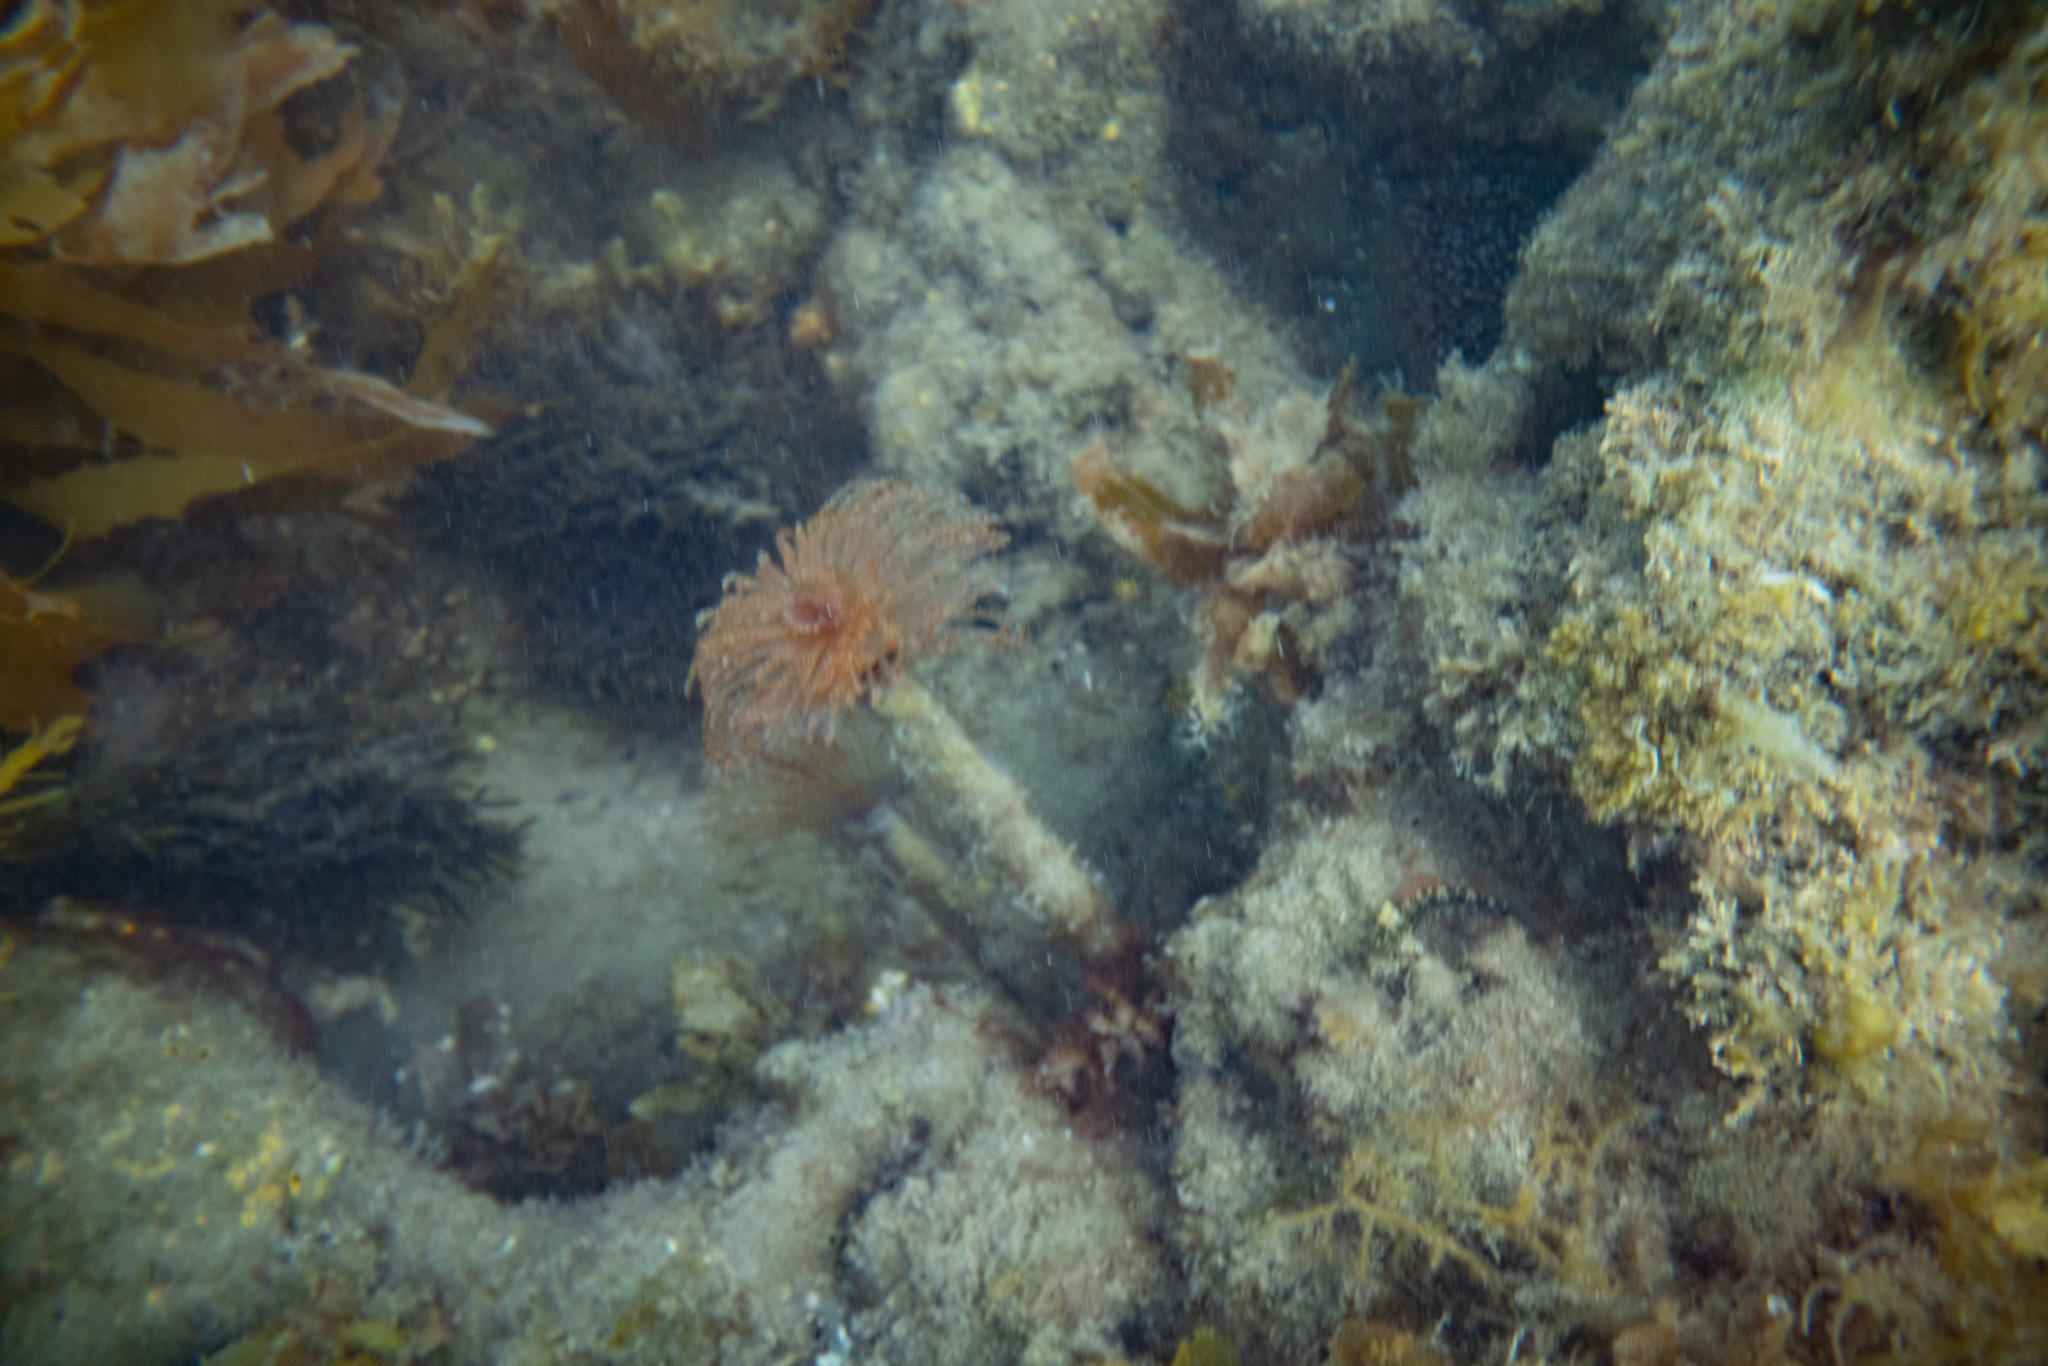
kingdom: Animalia
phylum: Annelida
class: Polychaeta
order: Sabellida
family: Sabellidae
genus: Sabella
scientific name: Sabella spallanzanii
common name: Feather duster worm
